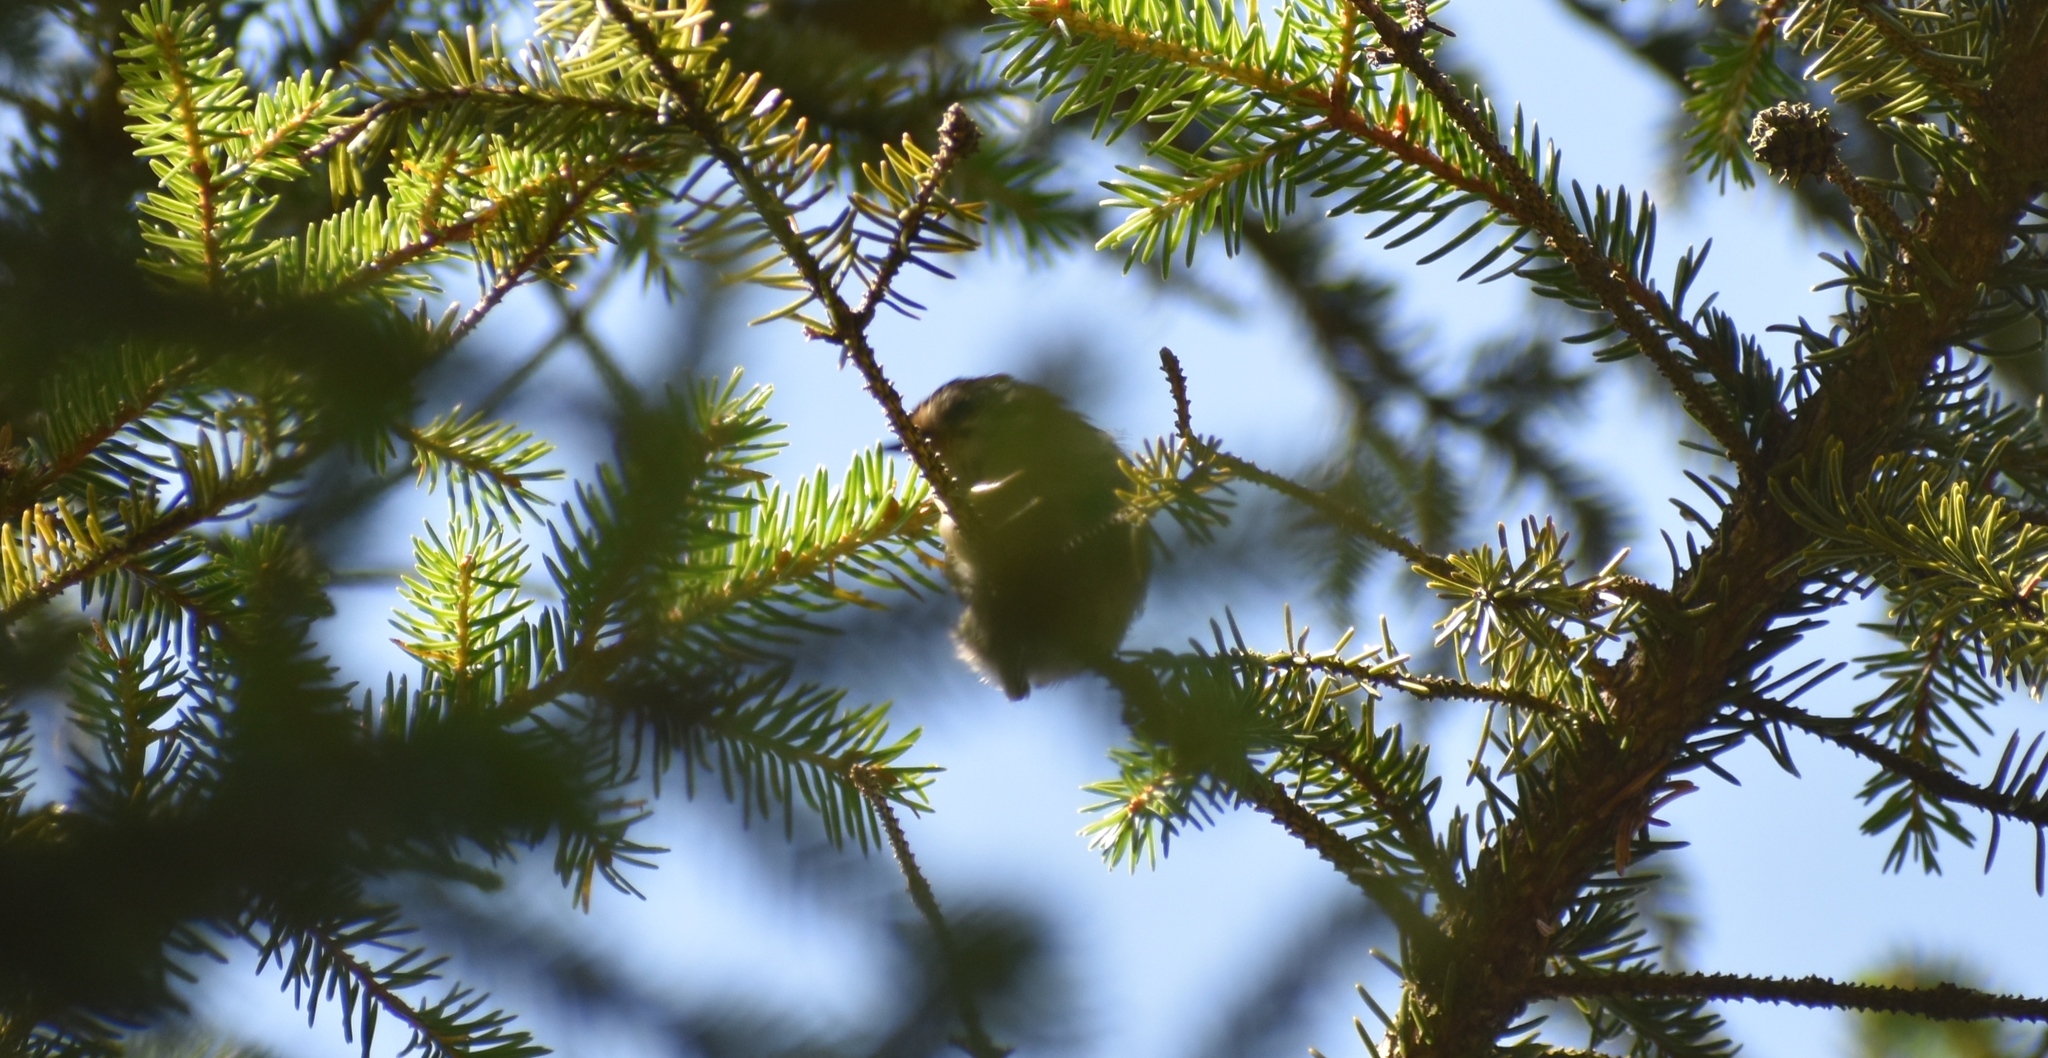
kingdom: Animalia
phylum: Chordata
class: Aves
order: Passeriformes
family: Regulidae
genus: Regulus
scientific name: Regulus regulus
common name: Goldcrest
